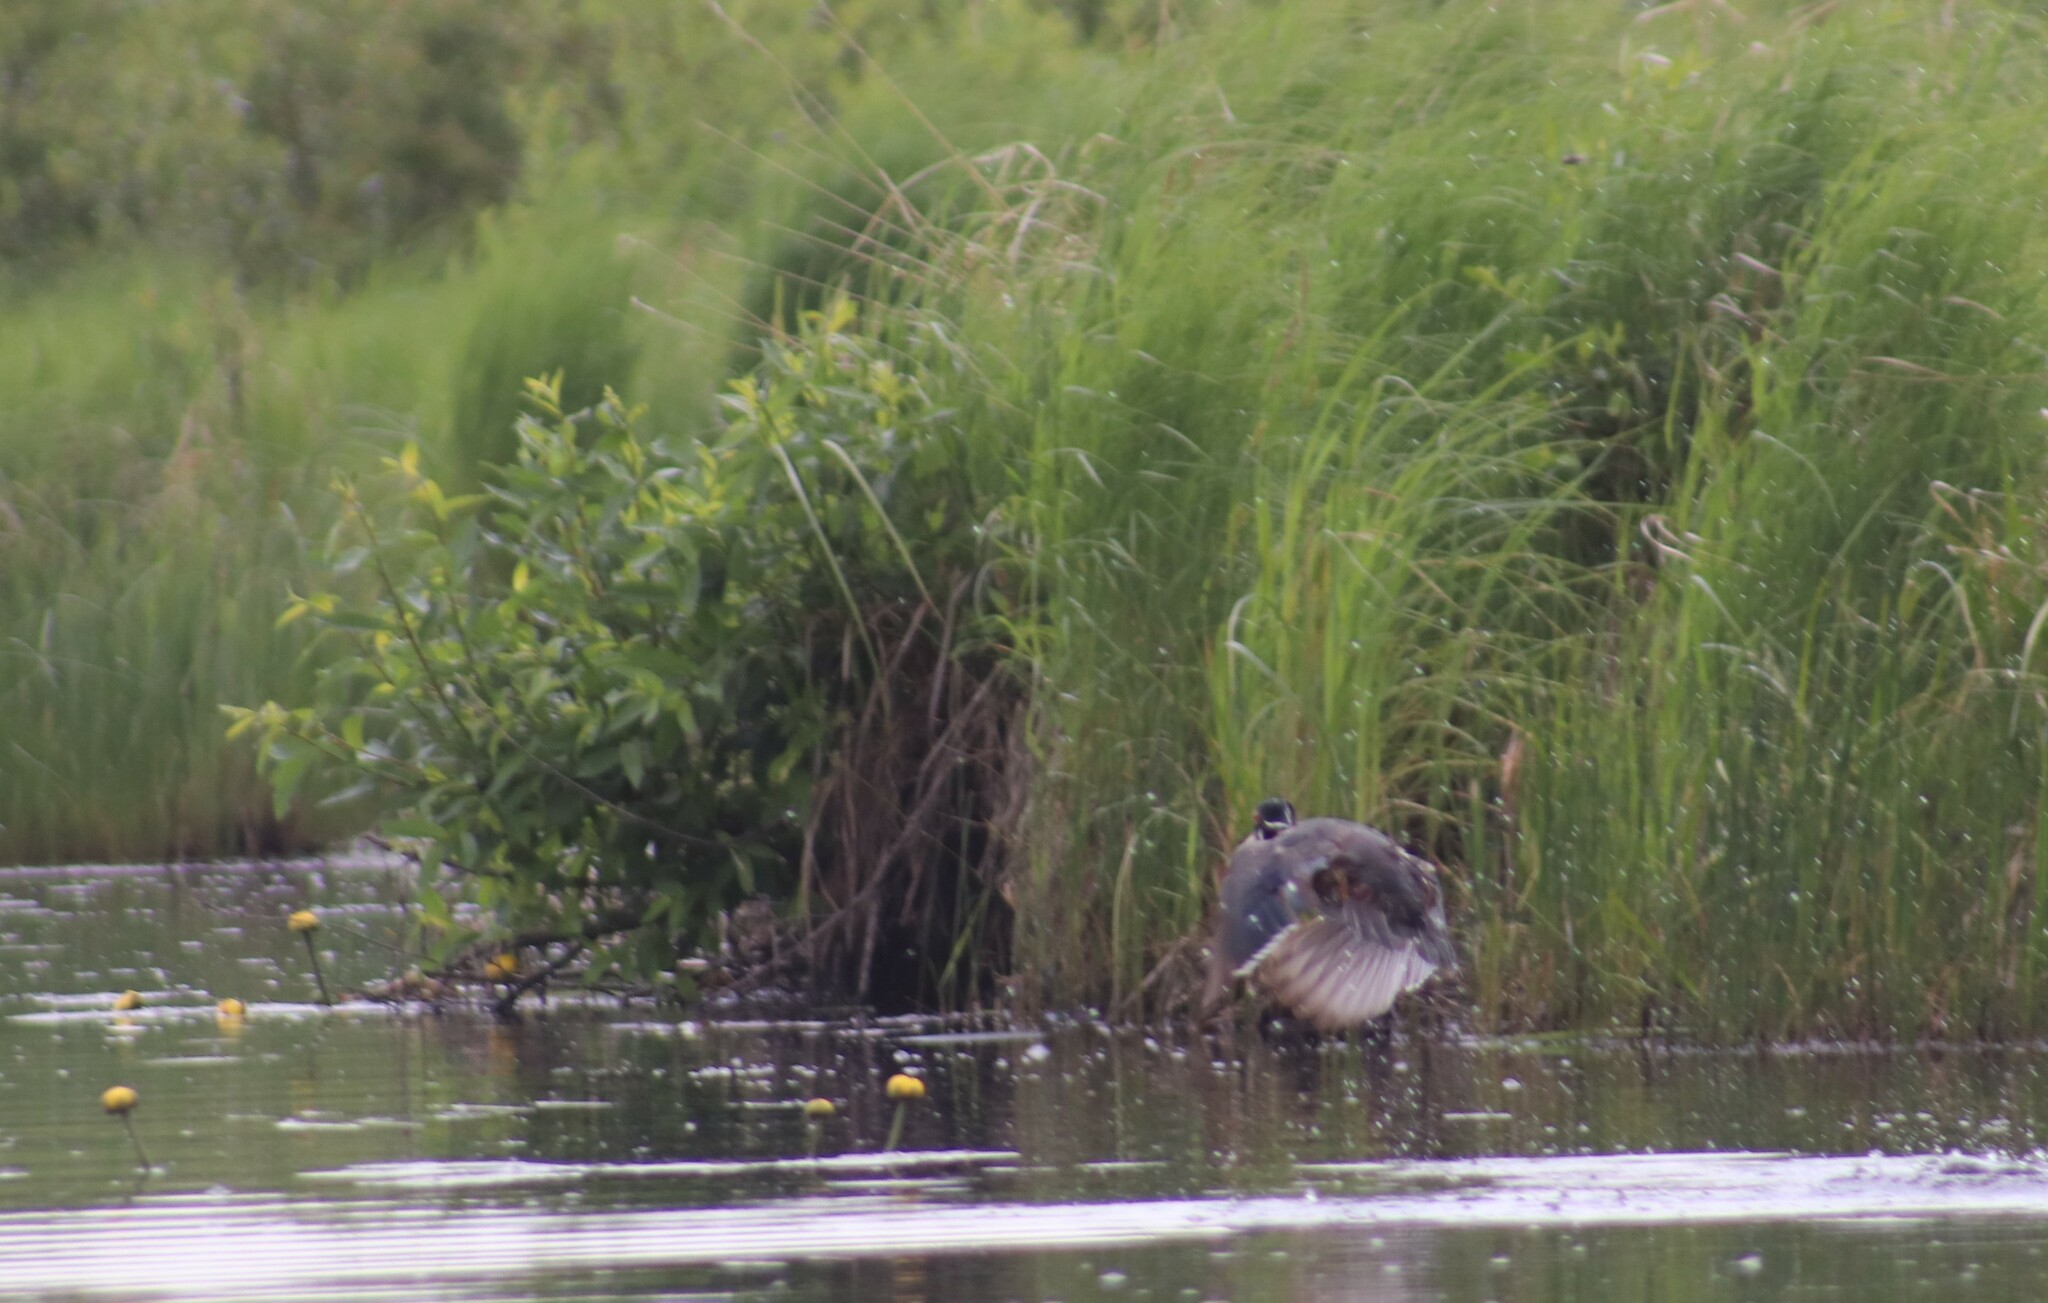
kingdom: Animalia
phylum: Chordata
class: Aves
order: Anseriformes
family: Anatidae
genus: Aix
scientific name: Aix sponsa
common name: Wood duck
